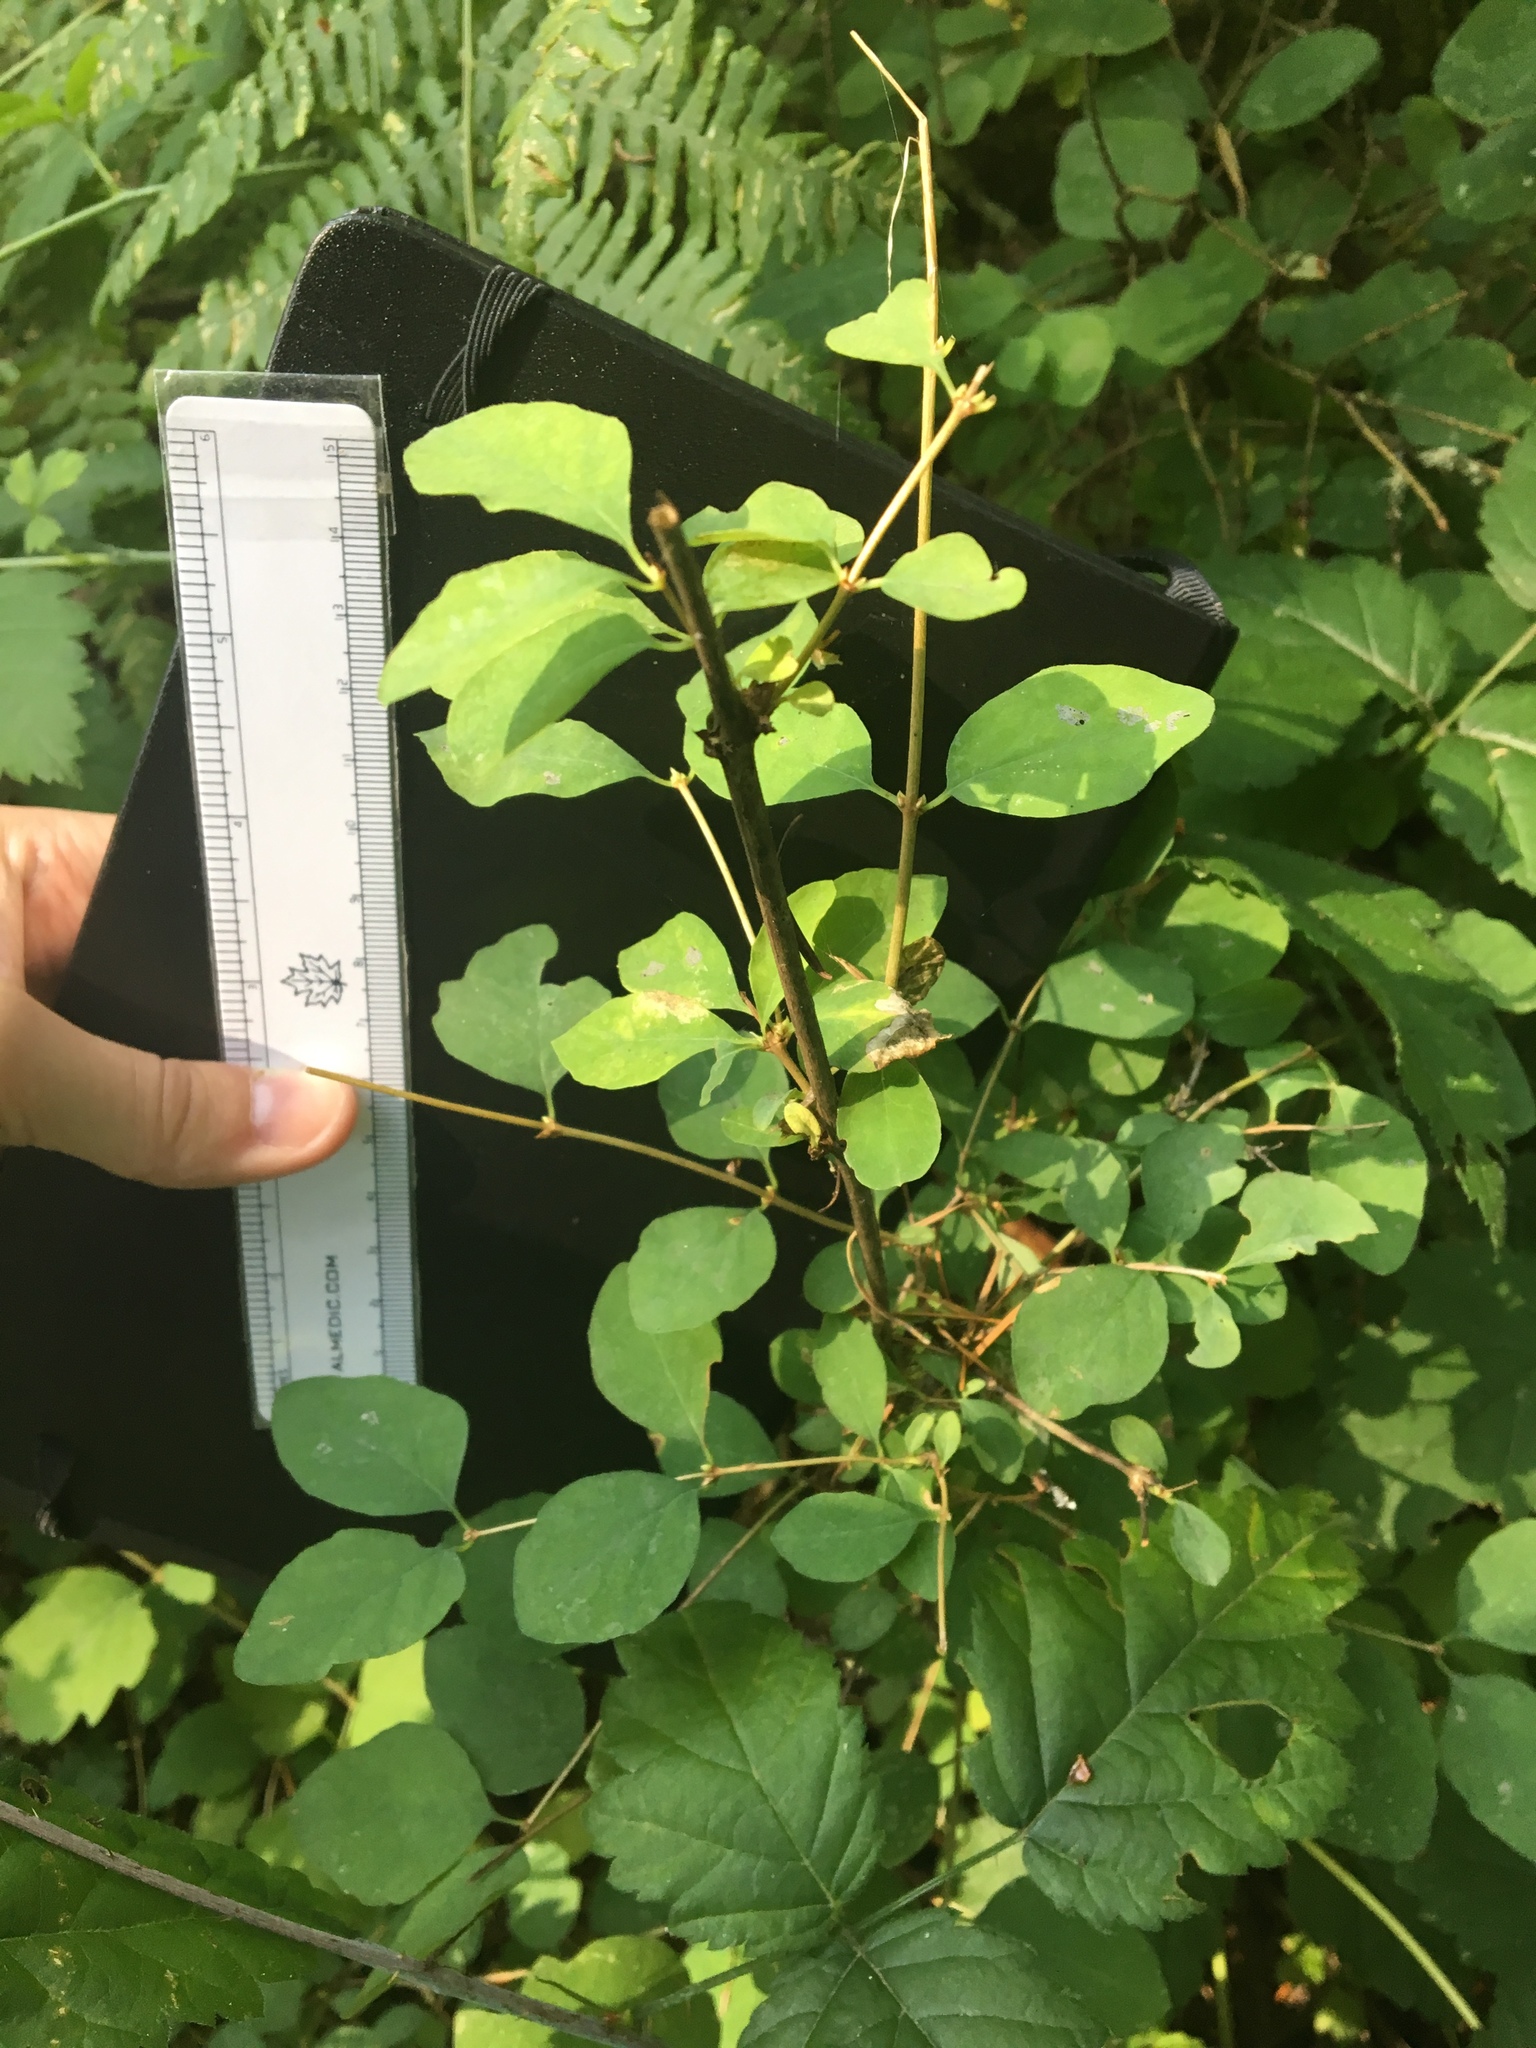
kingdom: Plantae
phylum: Tracheophyta
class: Magnoliopsida
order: Dipsacales
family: Caprifoliaceae
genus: Symphoricarpos
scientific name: Symphoricarpos albus
